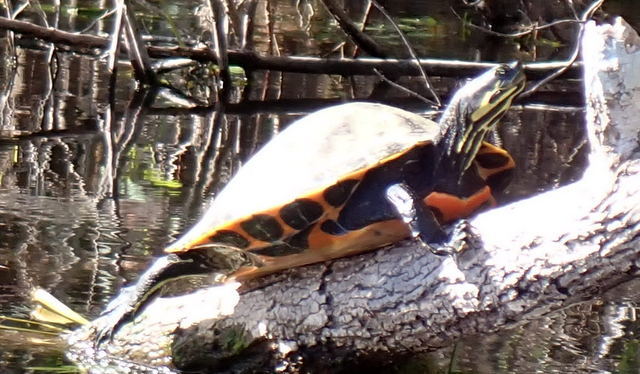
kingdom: Animalia
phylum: Chordata
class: Testudines
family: Emydidae
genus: Pseudemys
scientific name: Pseudemys concinna
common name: Eastern river cooter
